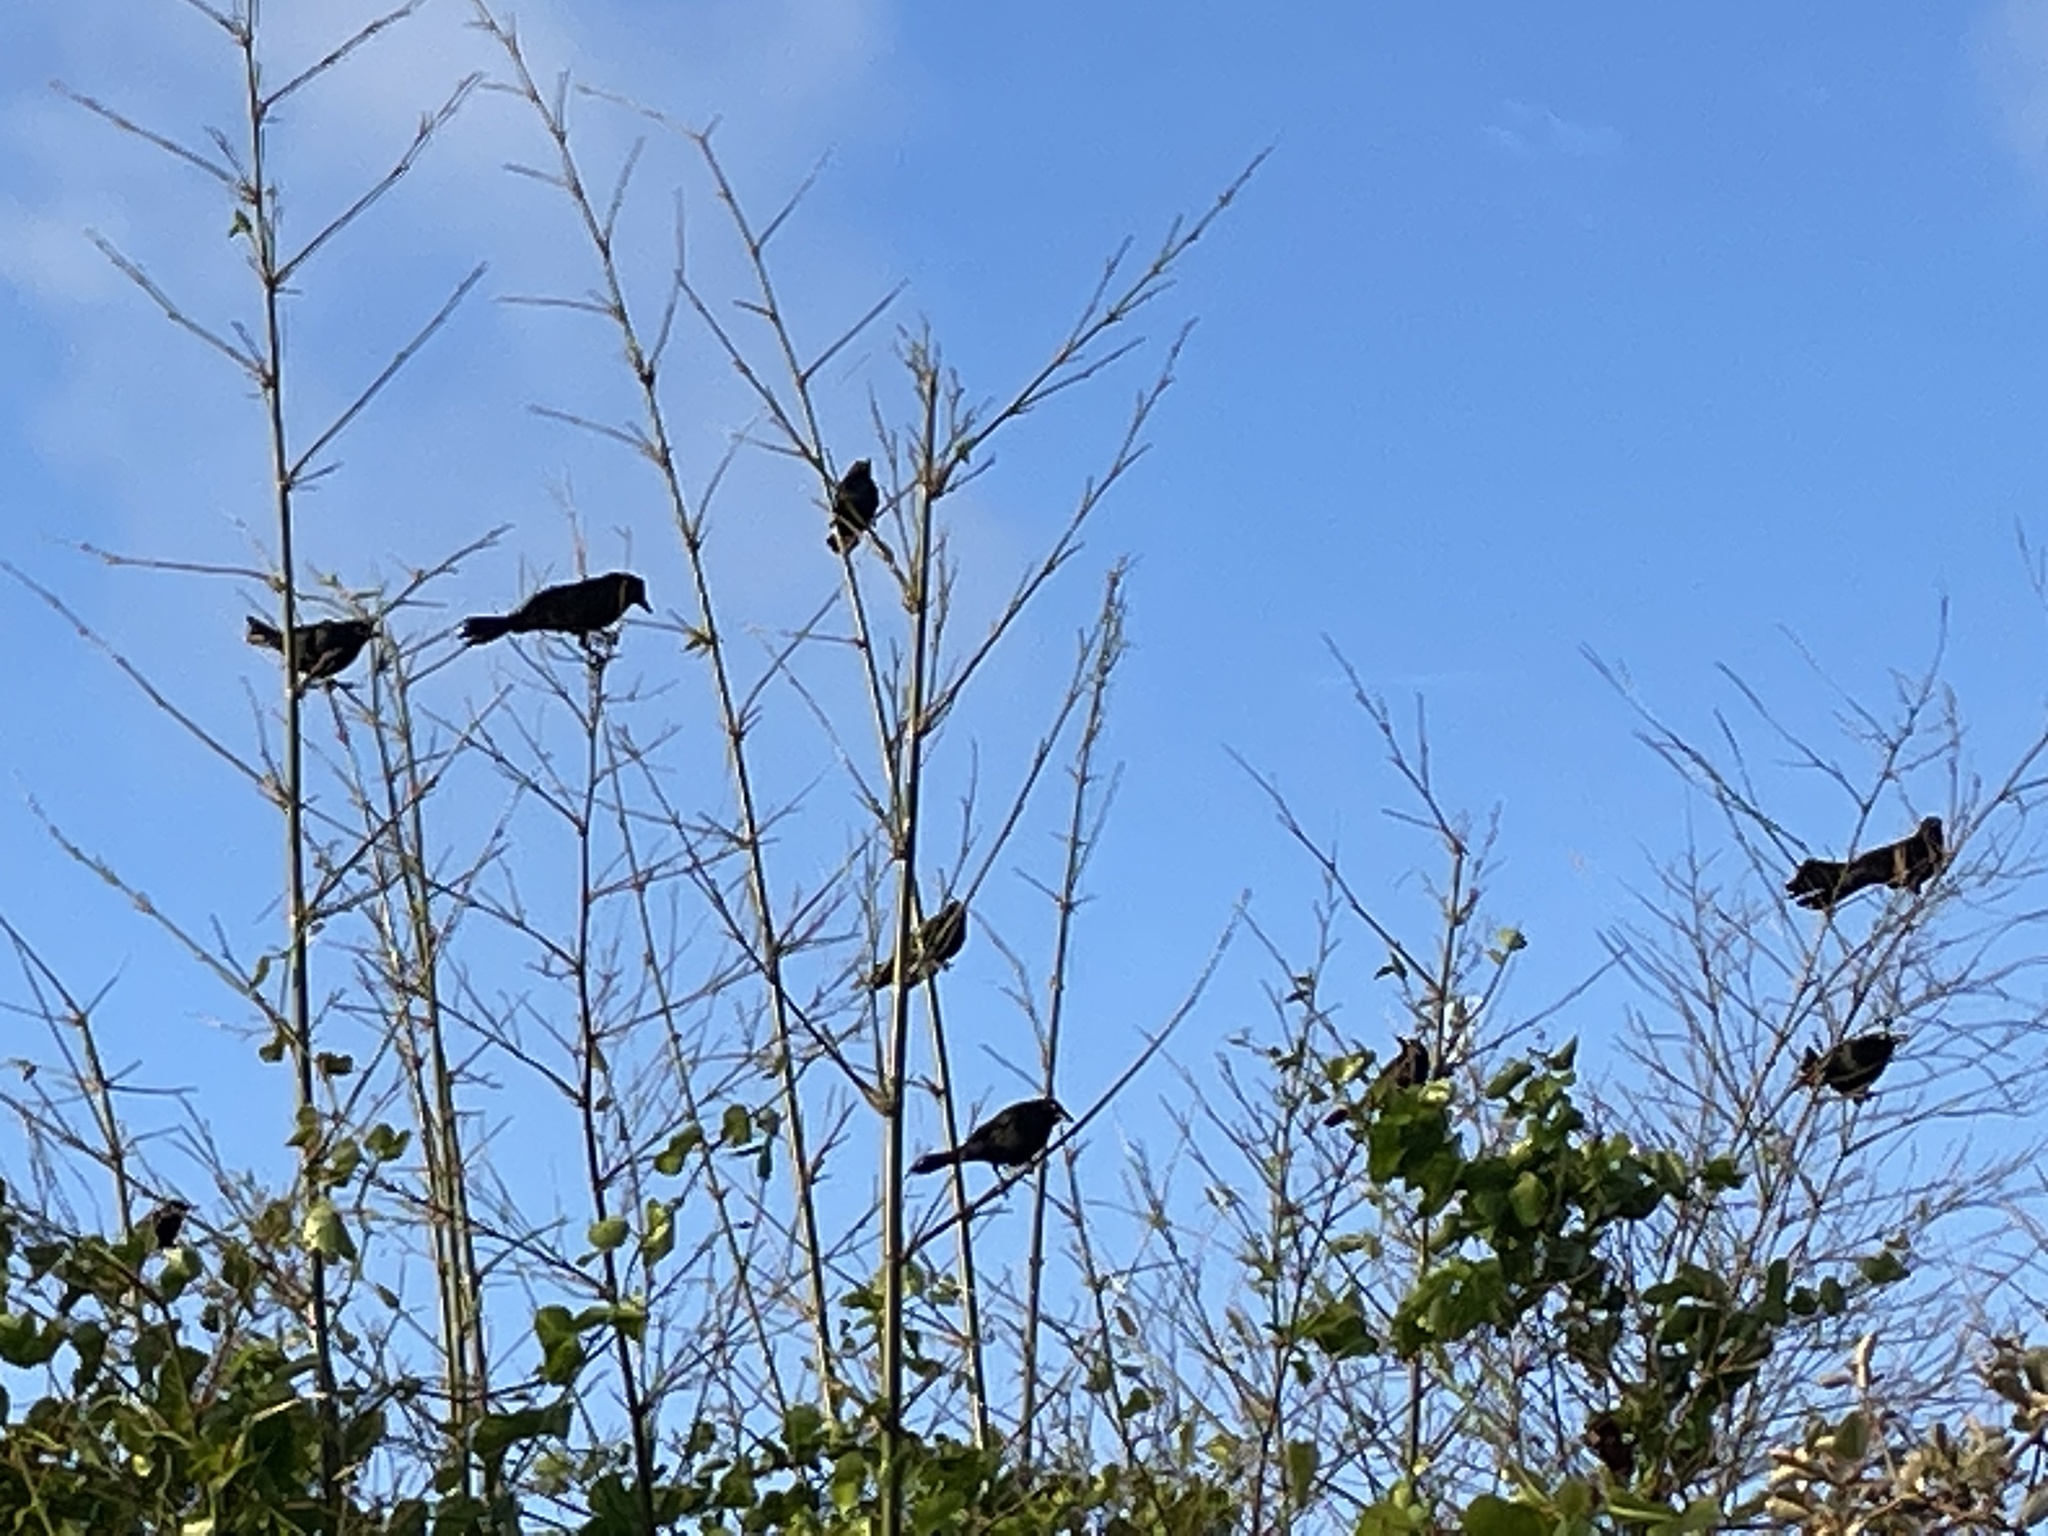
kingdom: Animalia
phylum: Chordata
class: Aves
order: Passeriformes
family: Icteridae
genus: Quiscalus
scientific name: Quiscalus quiscula
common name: Common grackle
